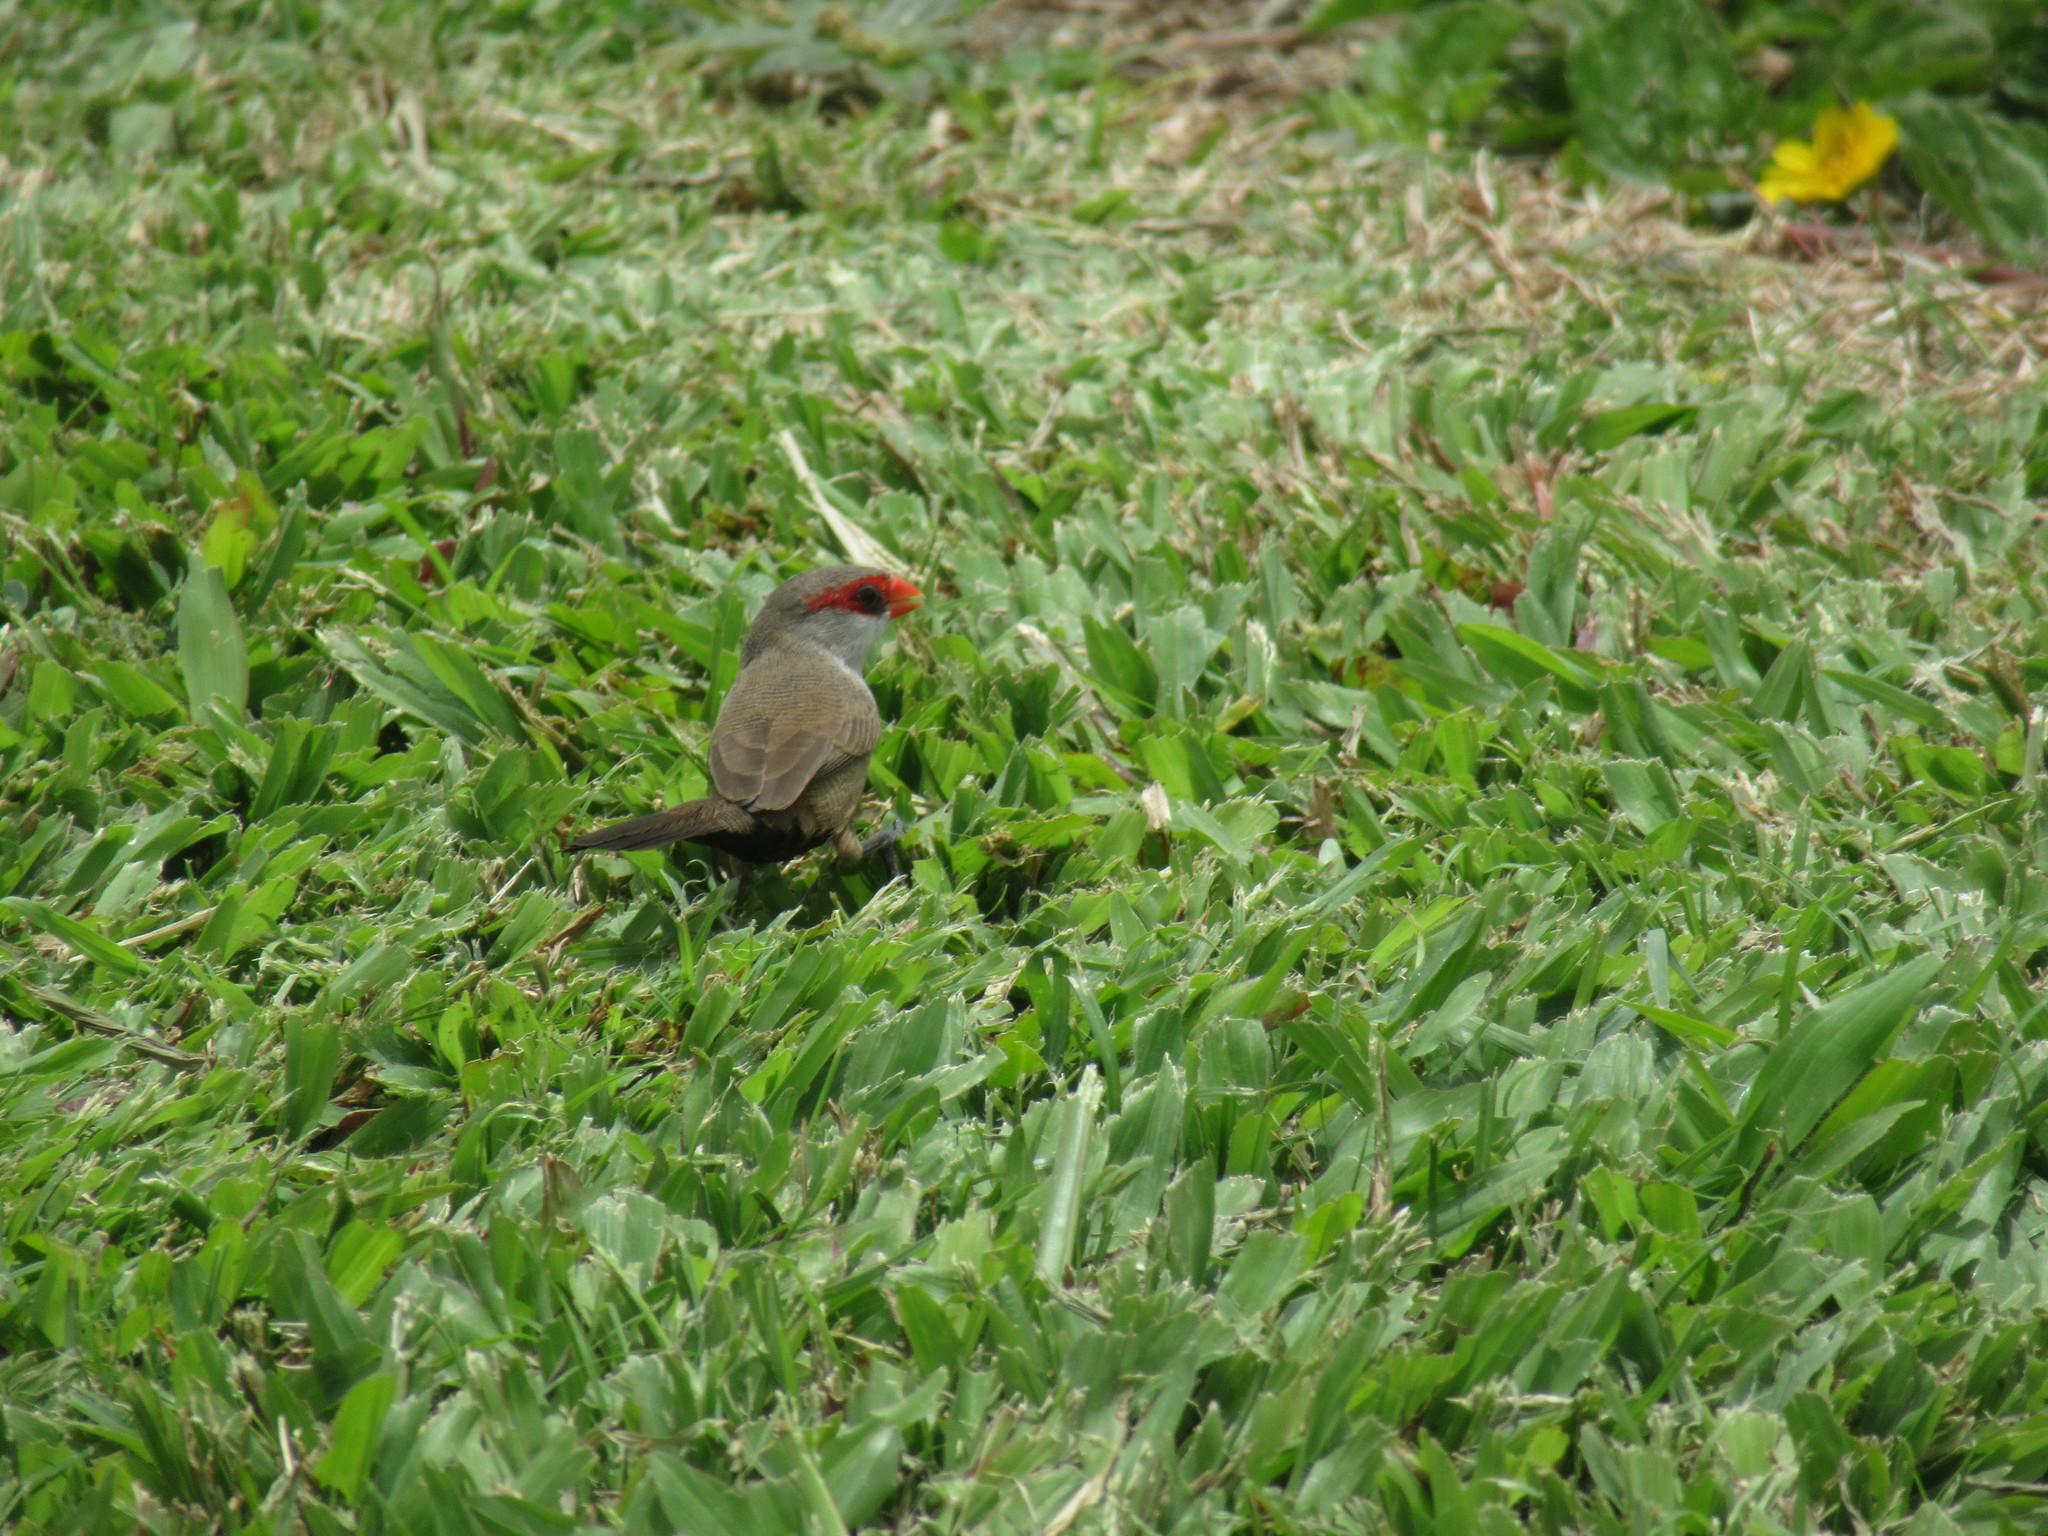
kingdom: Animalia
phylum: Chordata
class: Aves
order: Passeriformes
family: Estrildidae
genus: Estrilda
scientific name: Estrilda astrild
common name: Common waxbill
